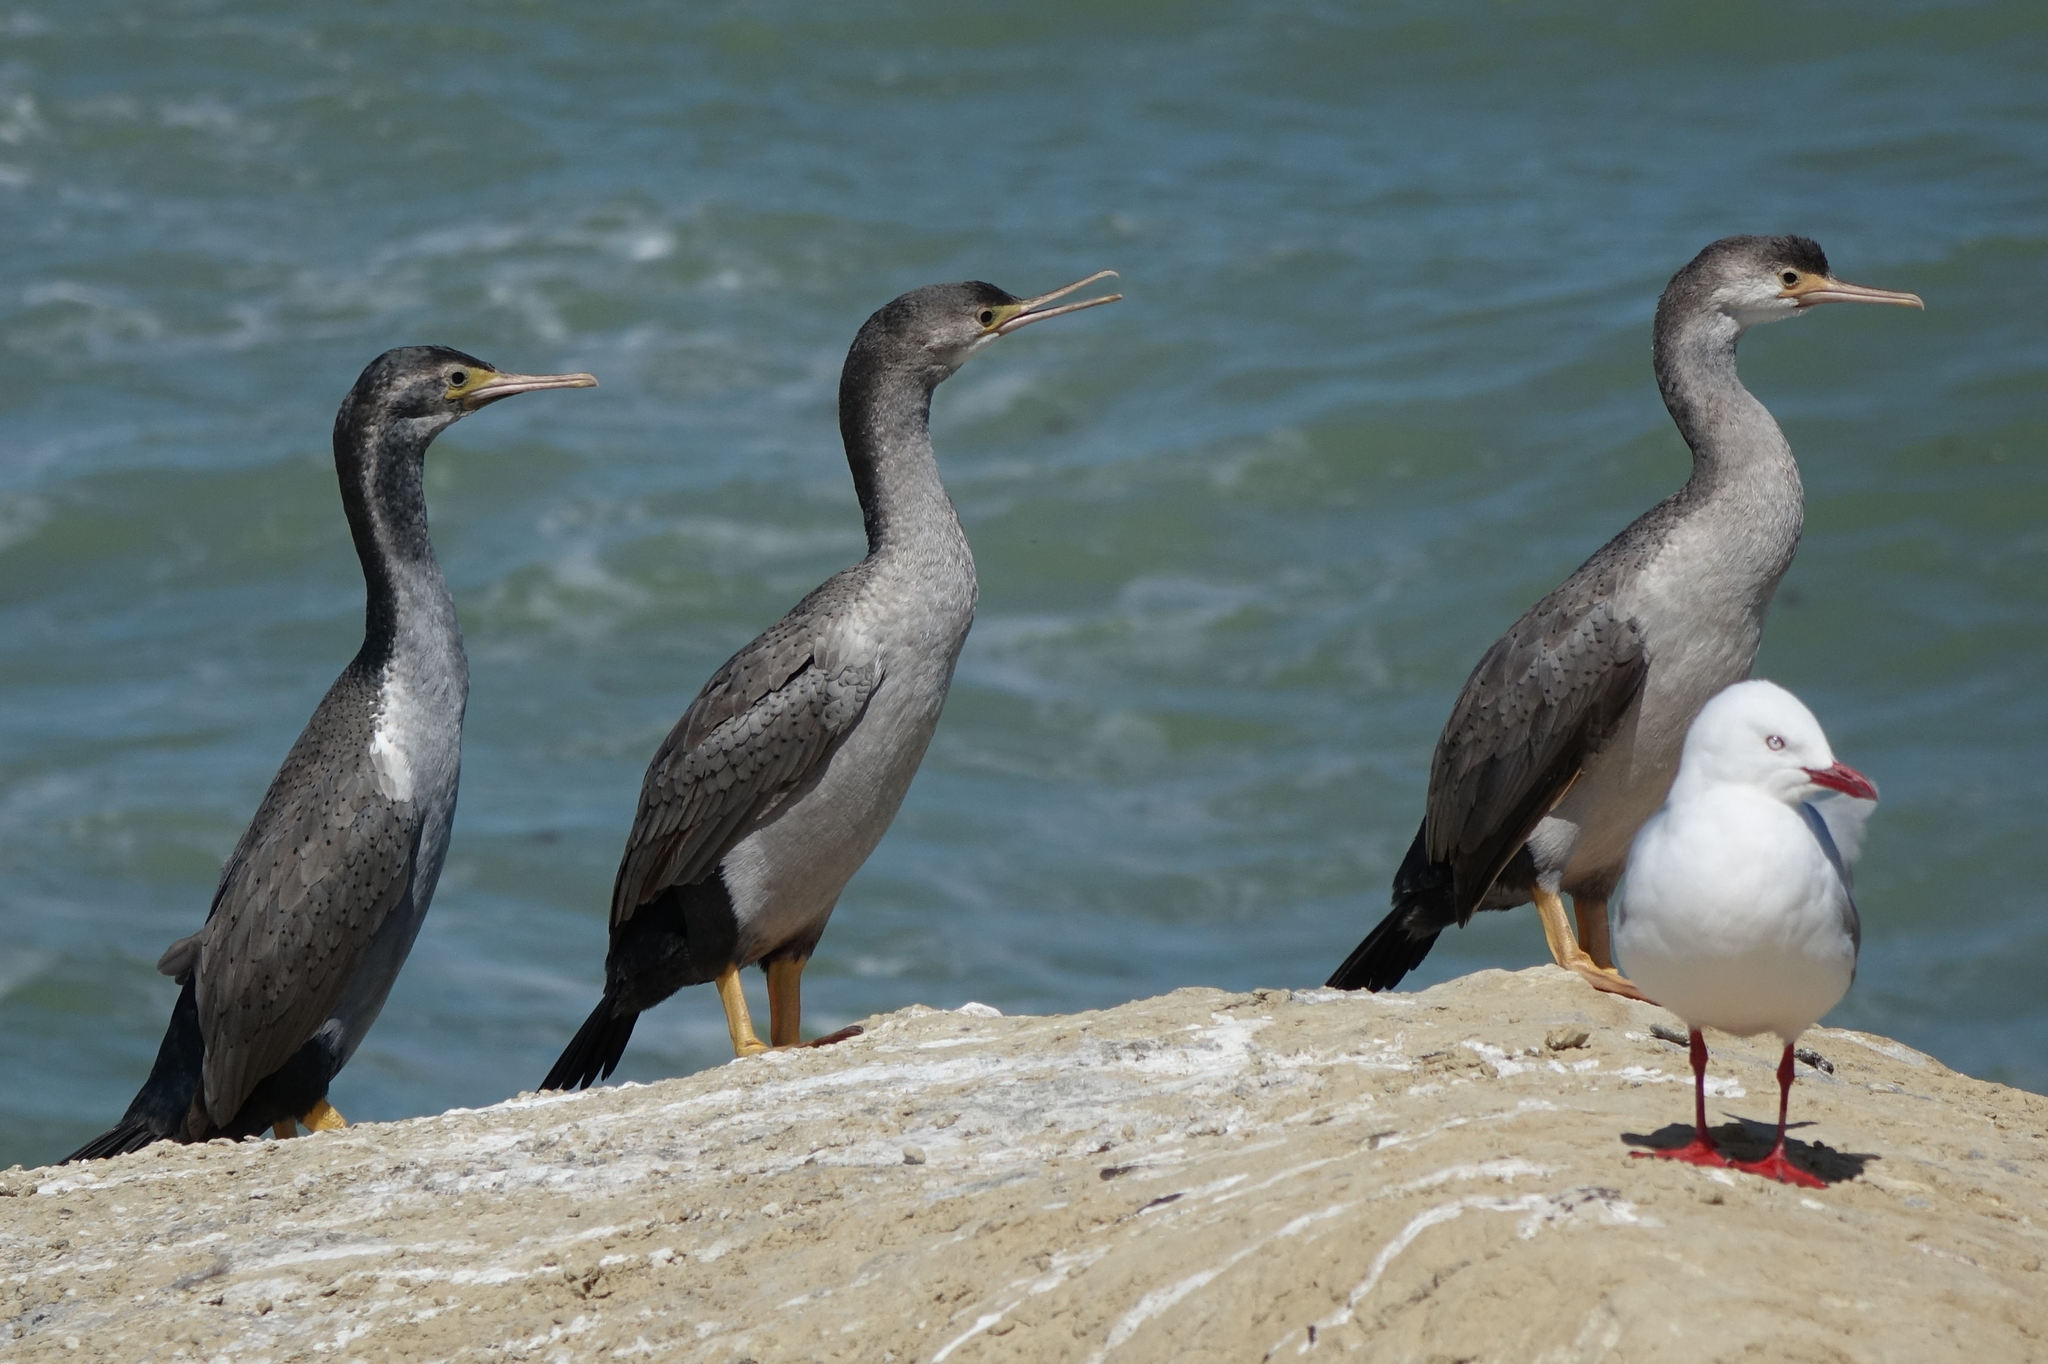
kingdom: Animalia
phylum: Chordata
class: Aves
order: Suliformes
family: Phalacrocoracidae
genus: Phalacrocorax
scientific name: Phalacrocorax punctatus
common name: Spotted shag
